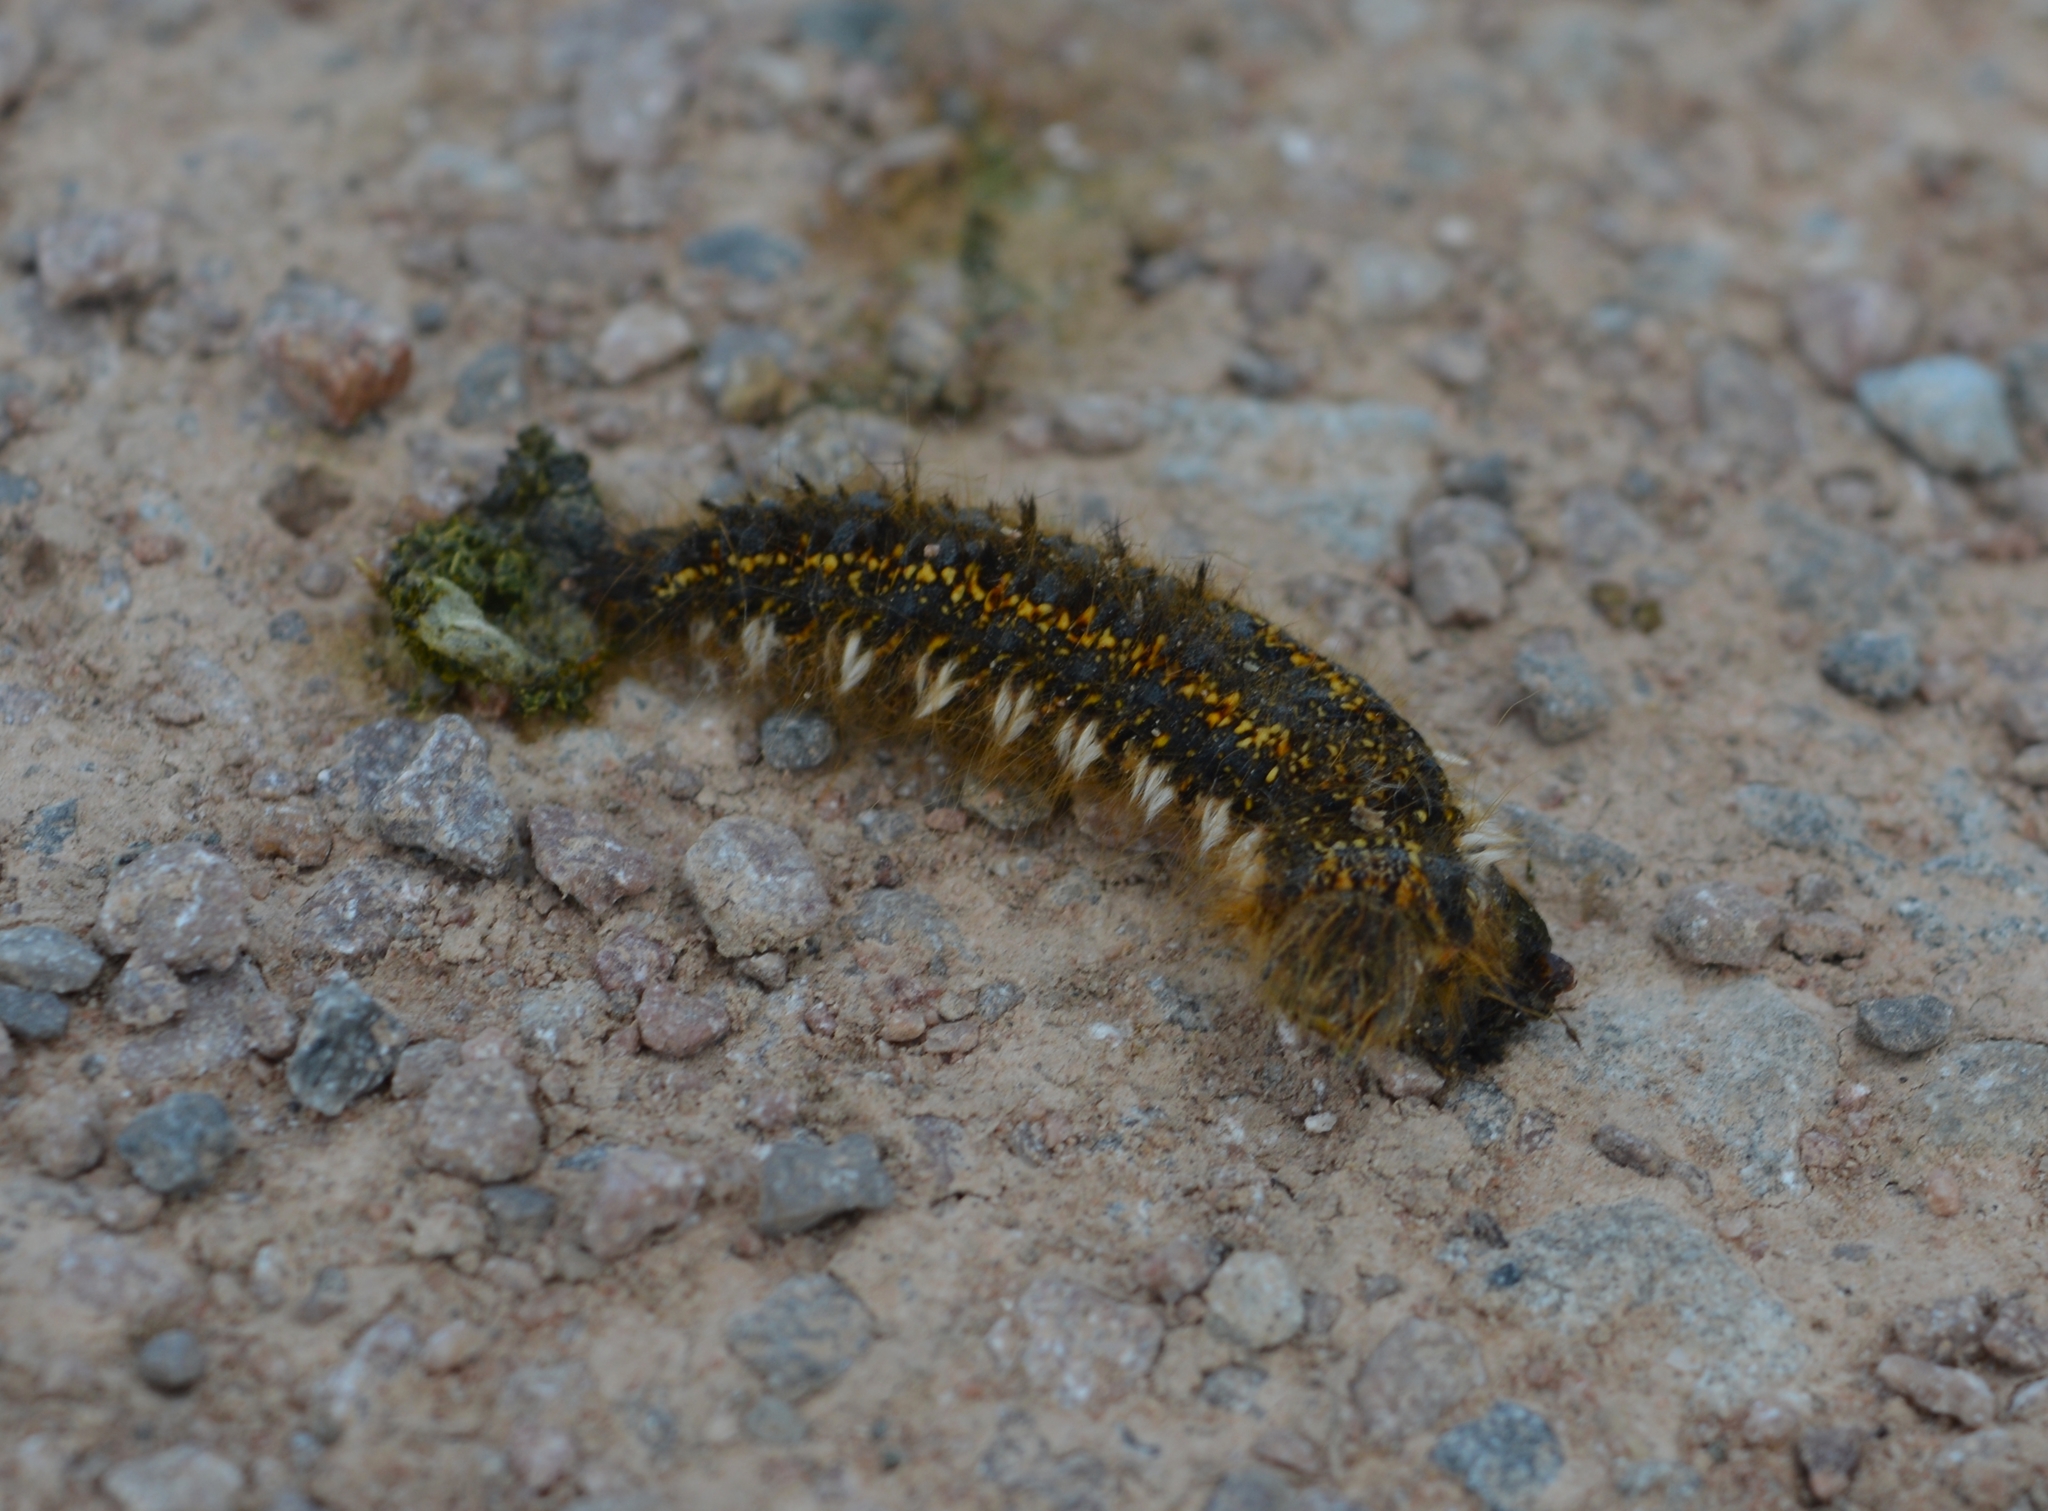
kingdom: Animalia
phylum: Arthropoda
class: Insecta
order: Lepidoptera
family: Lasiocampidae
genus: Euthrix
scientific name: Euthrix potatoria
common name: Drinker
